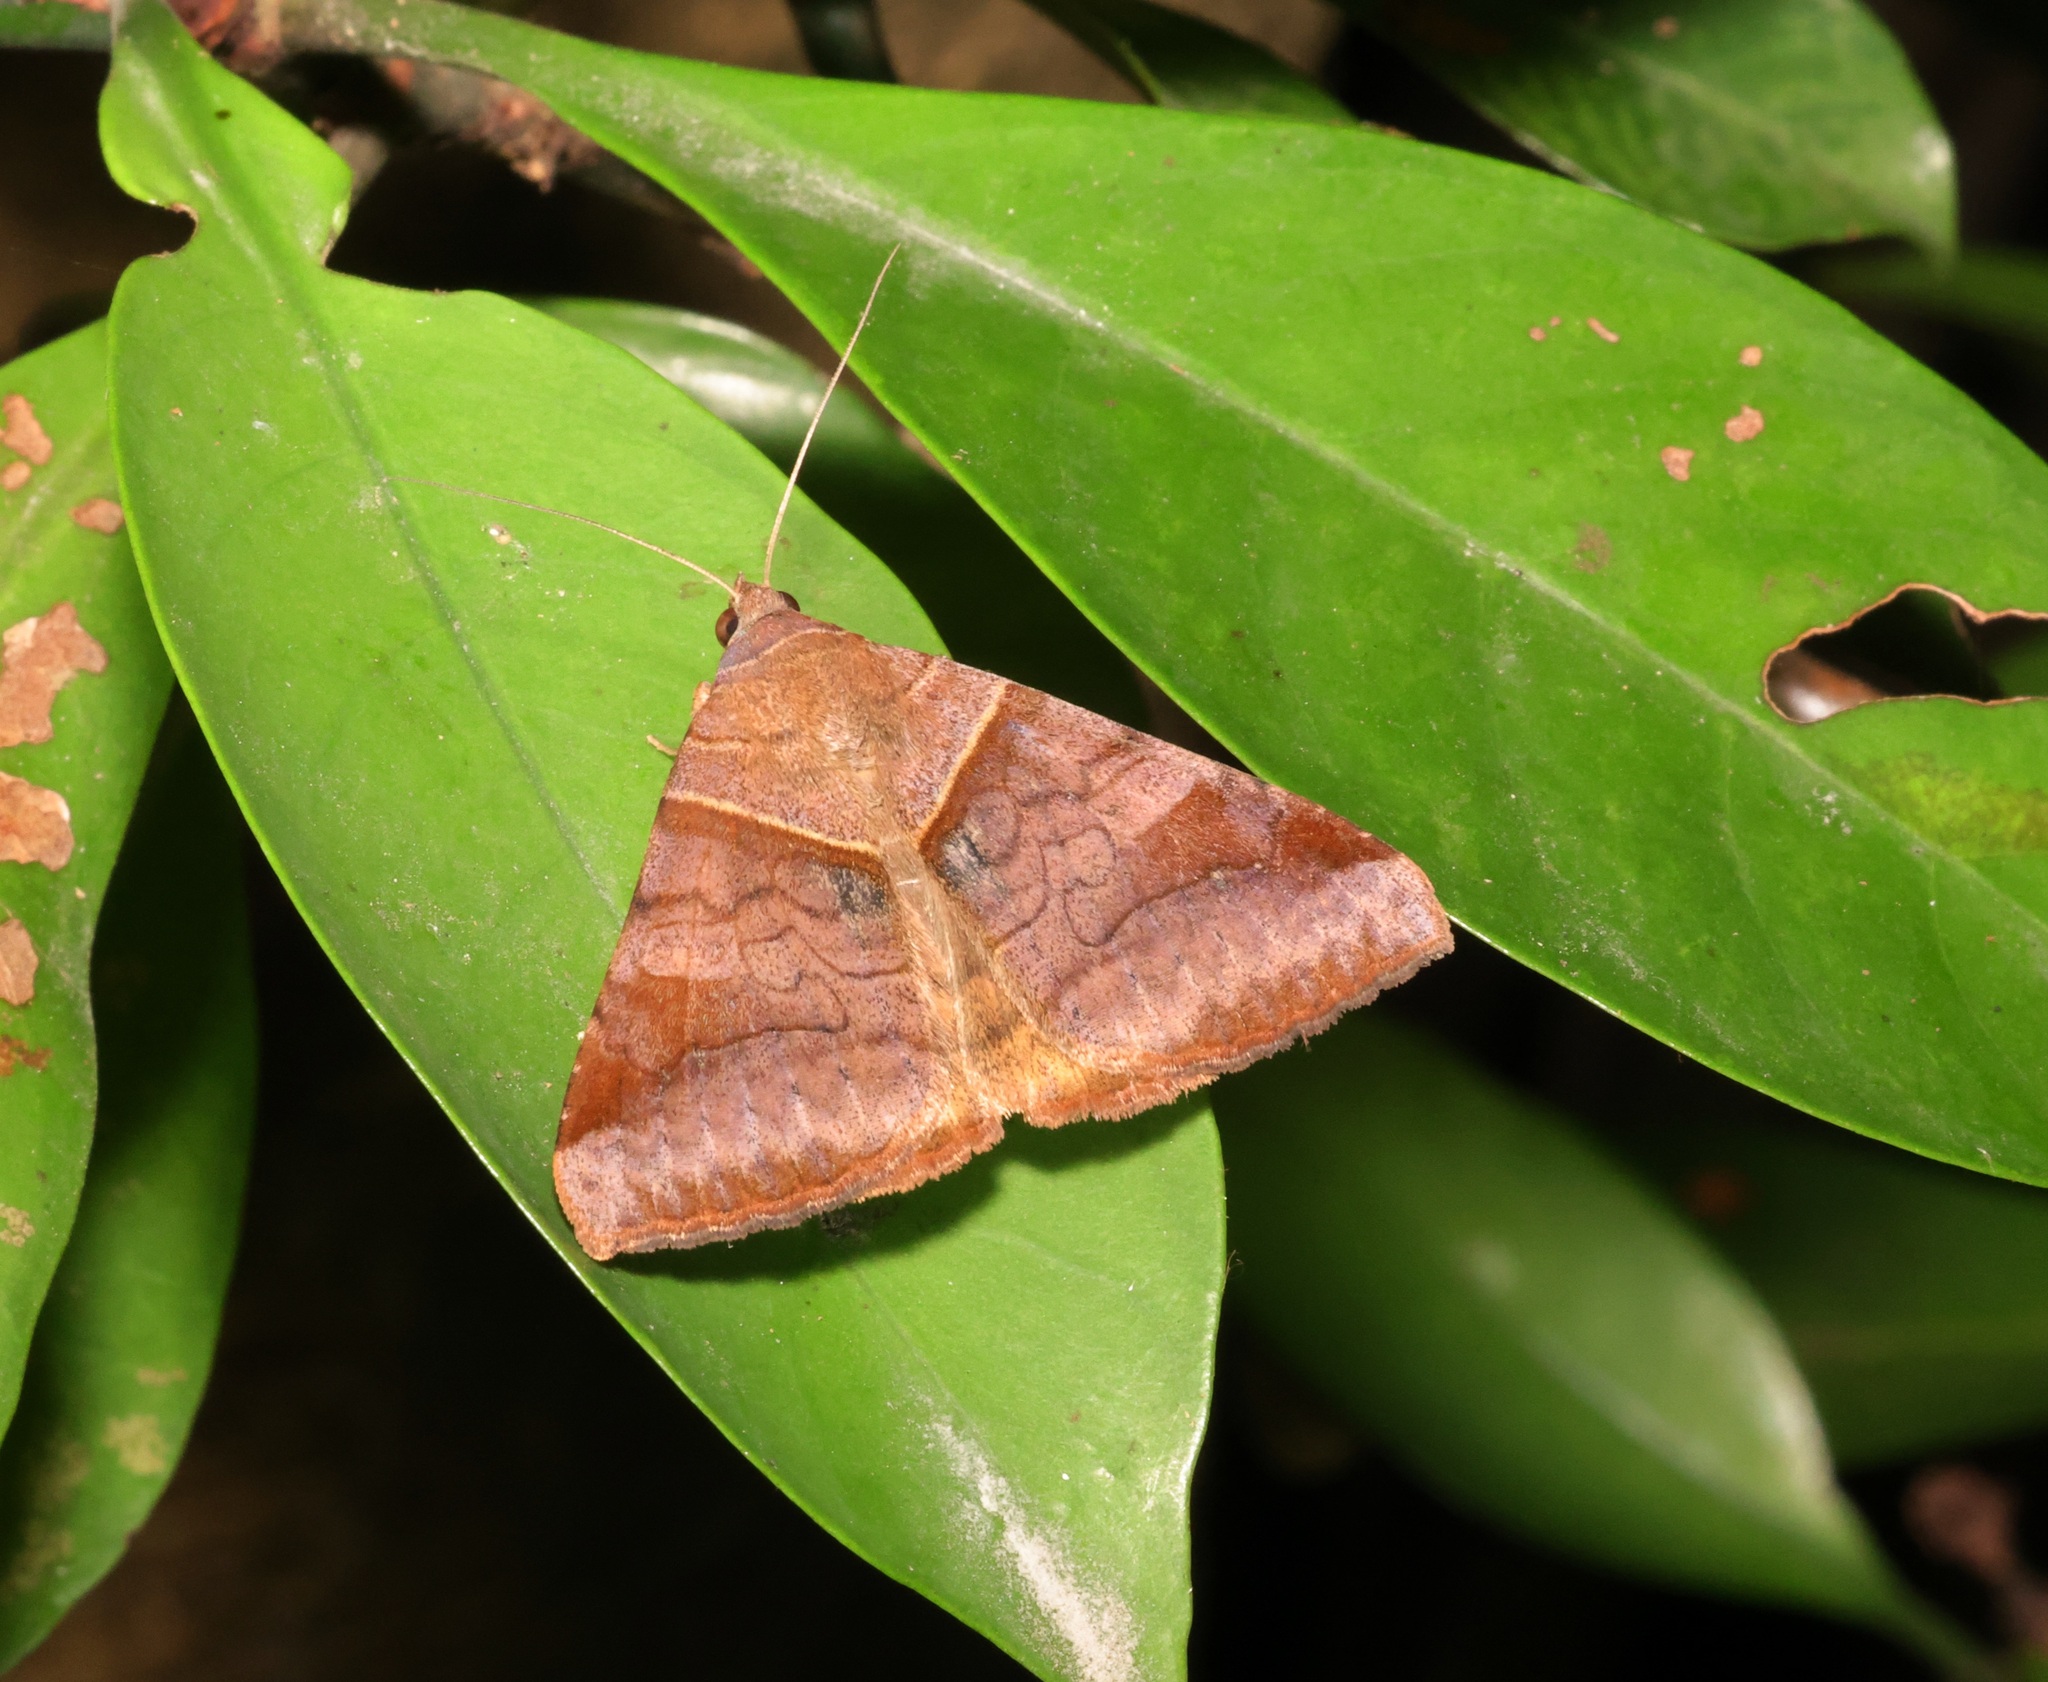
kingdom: Animalia
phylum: Arthropoda
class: Insecta
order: Lepidoptera
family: Erebidae
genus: Mocis
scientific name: Mocis undata
